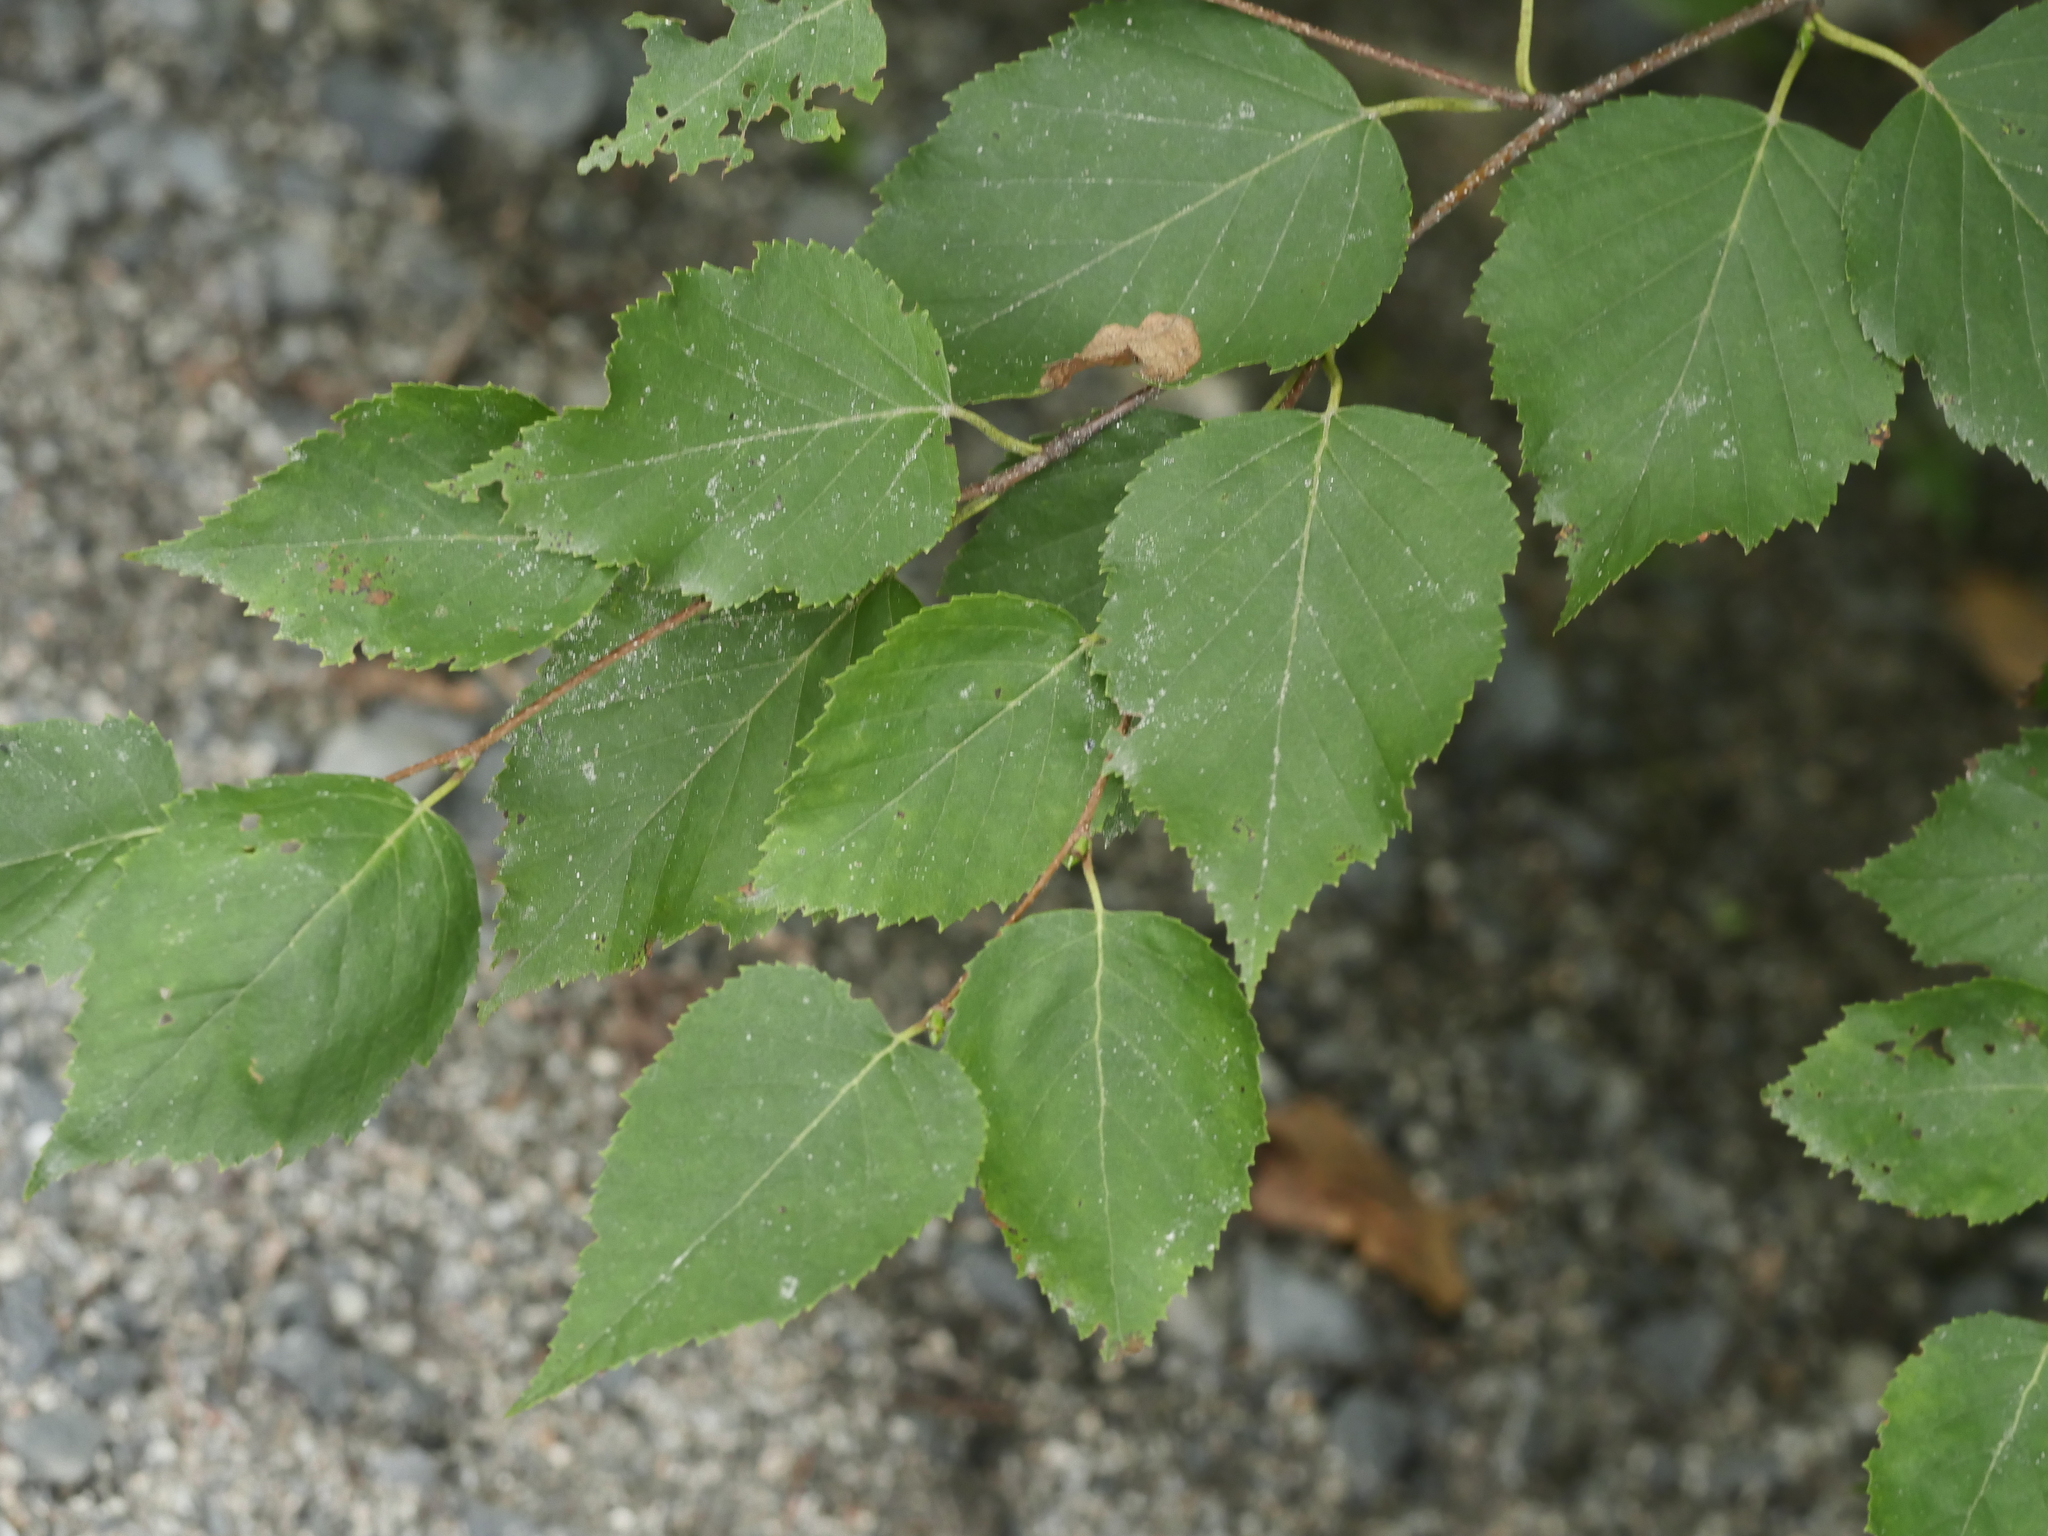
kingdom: Plantae
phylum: Tracheophyta
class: Magnoliopsida
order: Fagales
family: Betulaceae
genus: Betula
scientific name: Betula papyrifera
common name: Paper birch
